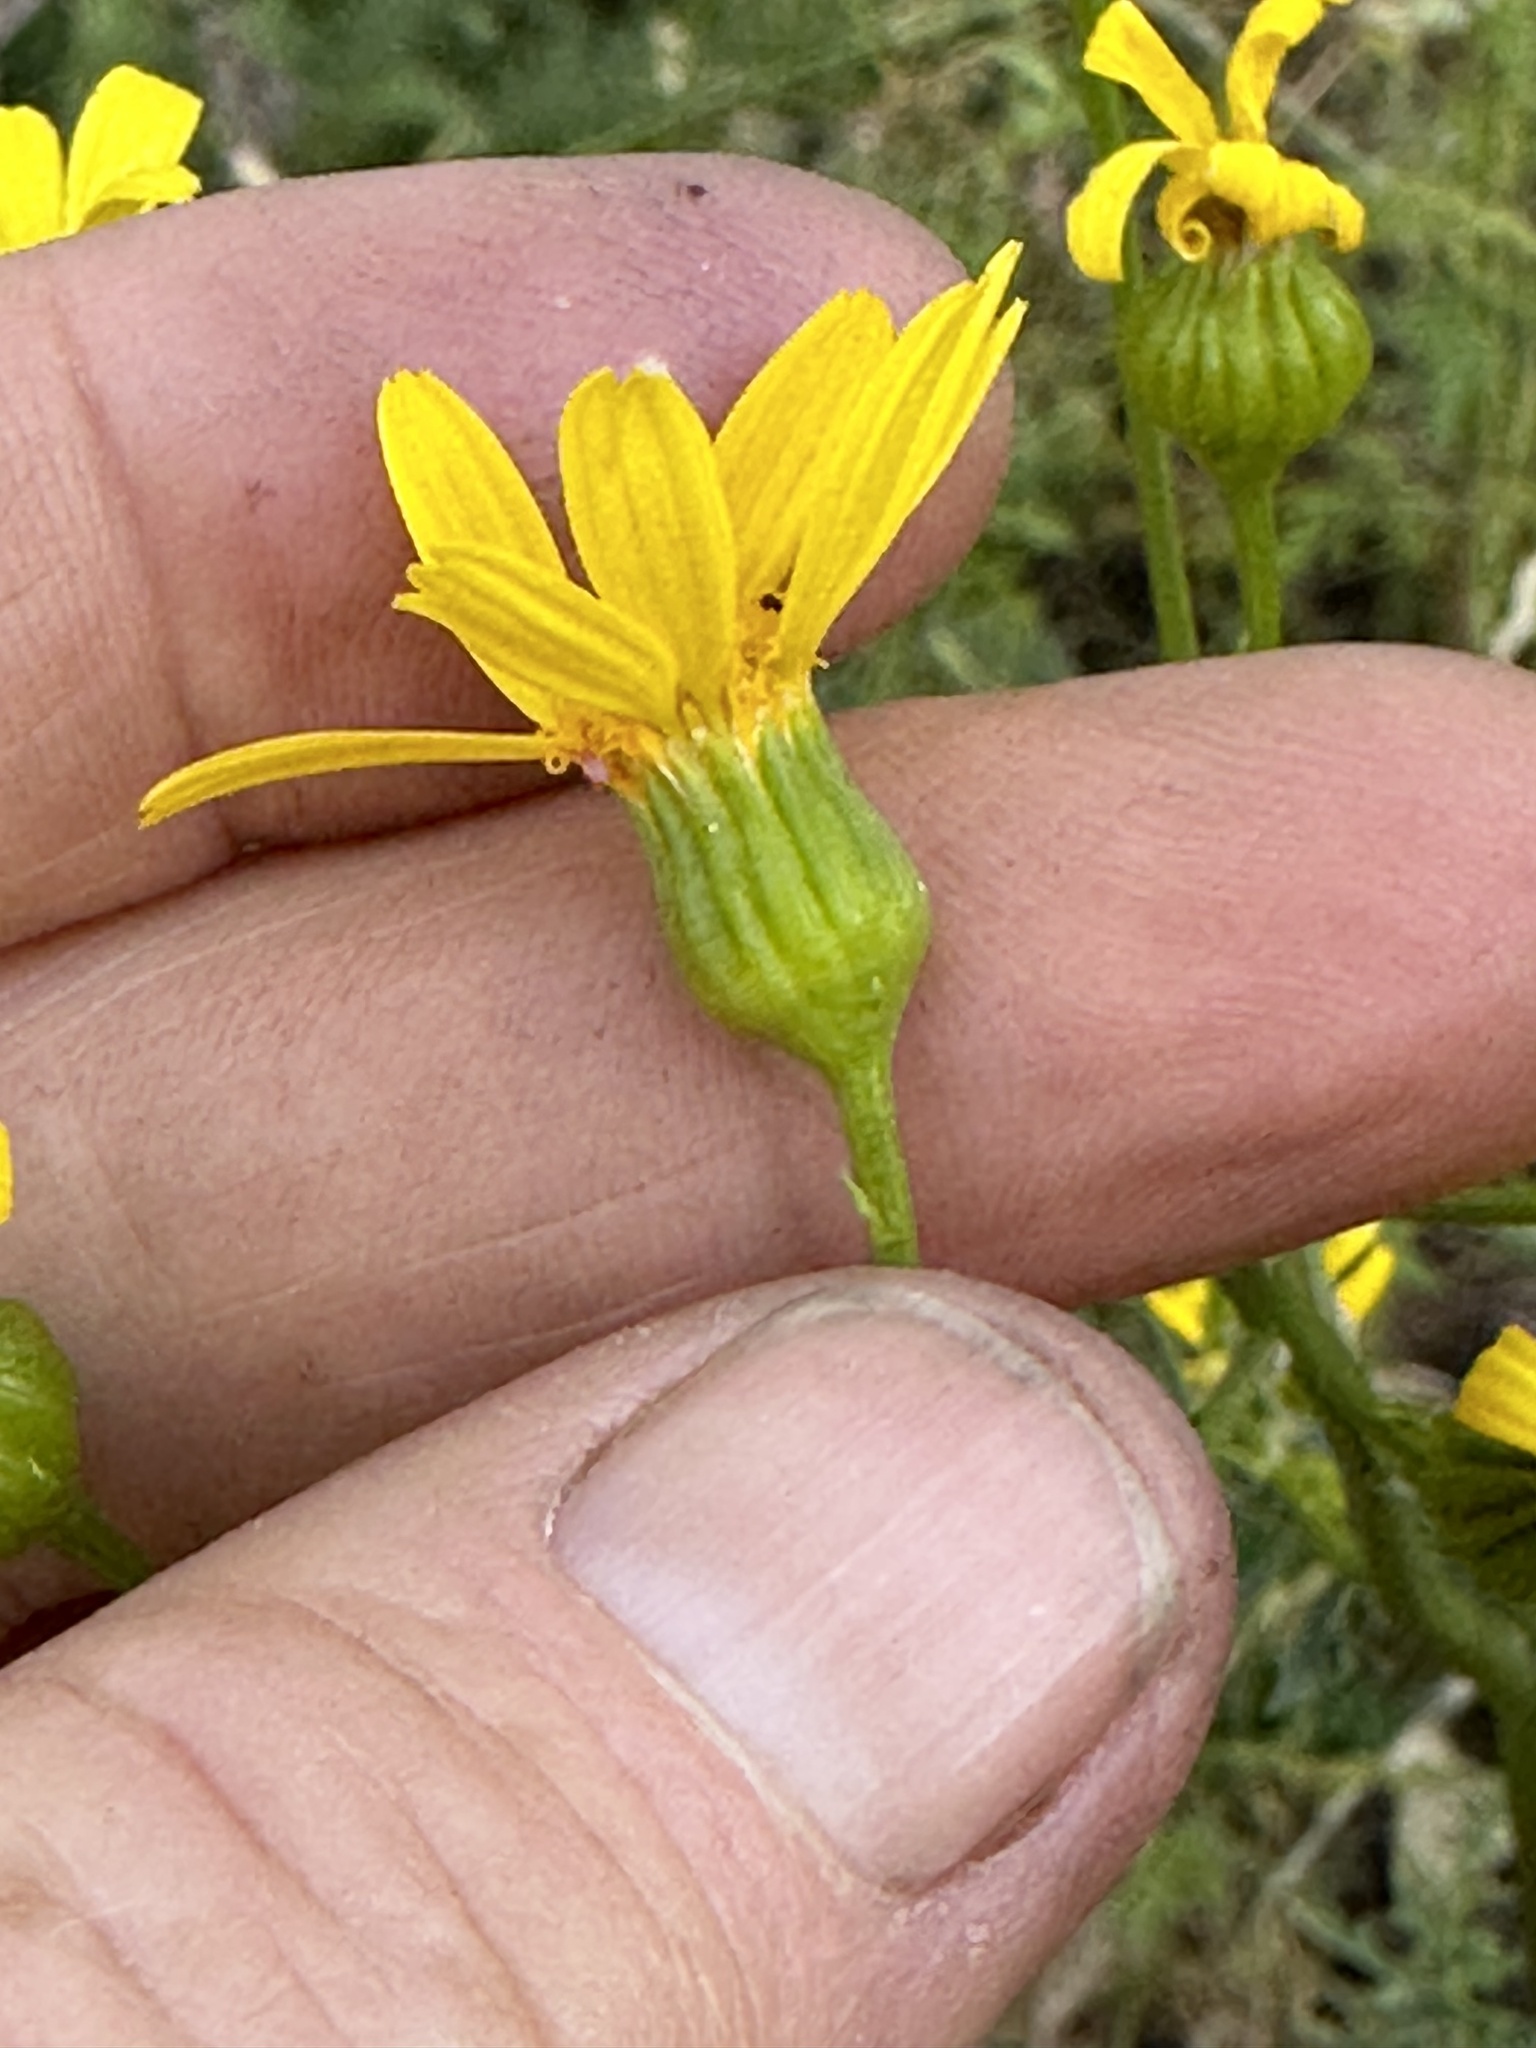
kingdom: Plantae
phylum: Tracheophyta
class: Magnoliopsida
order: Asterales
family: Asteraceae
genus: Packera
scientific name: Packera breweri
